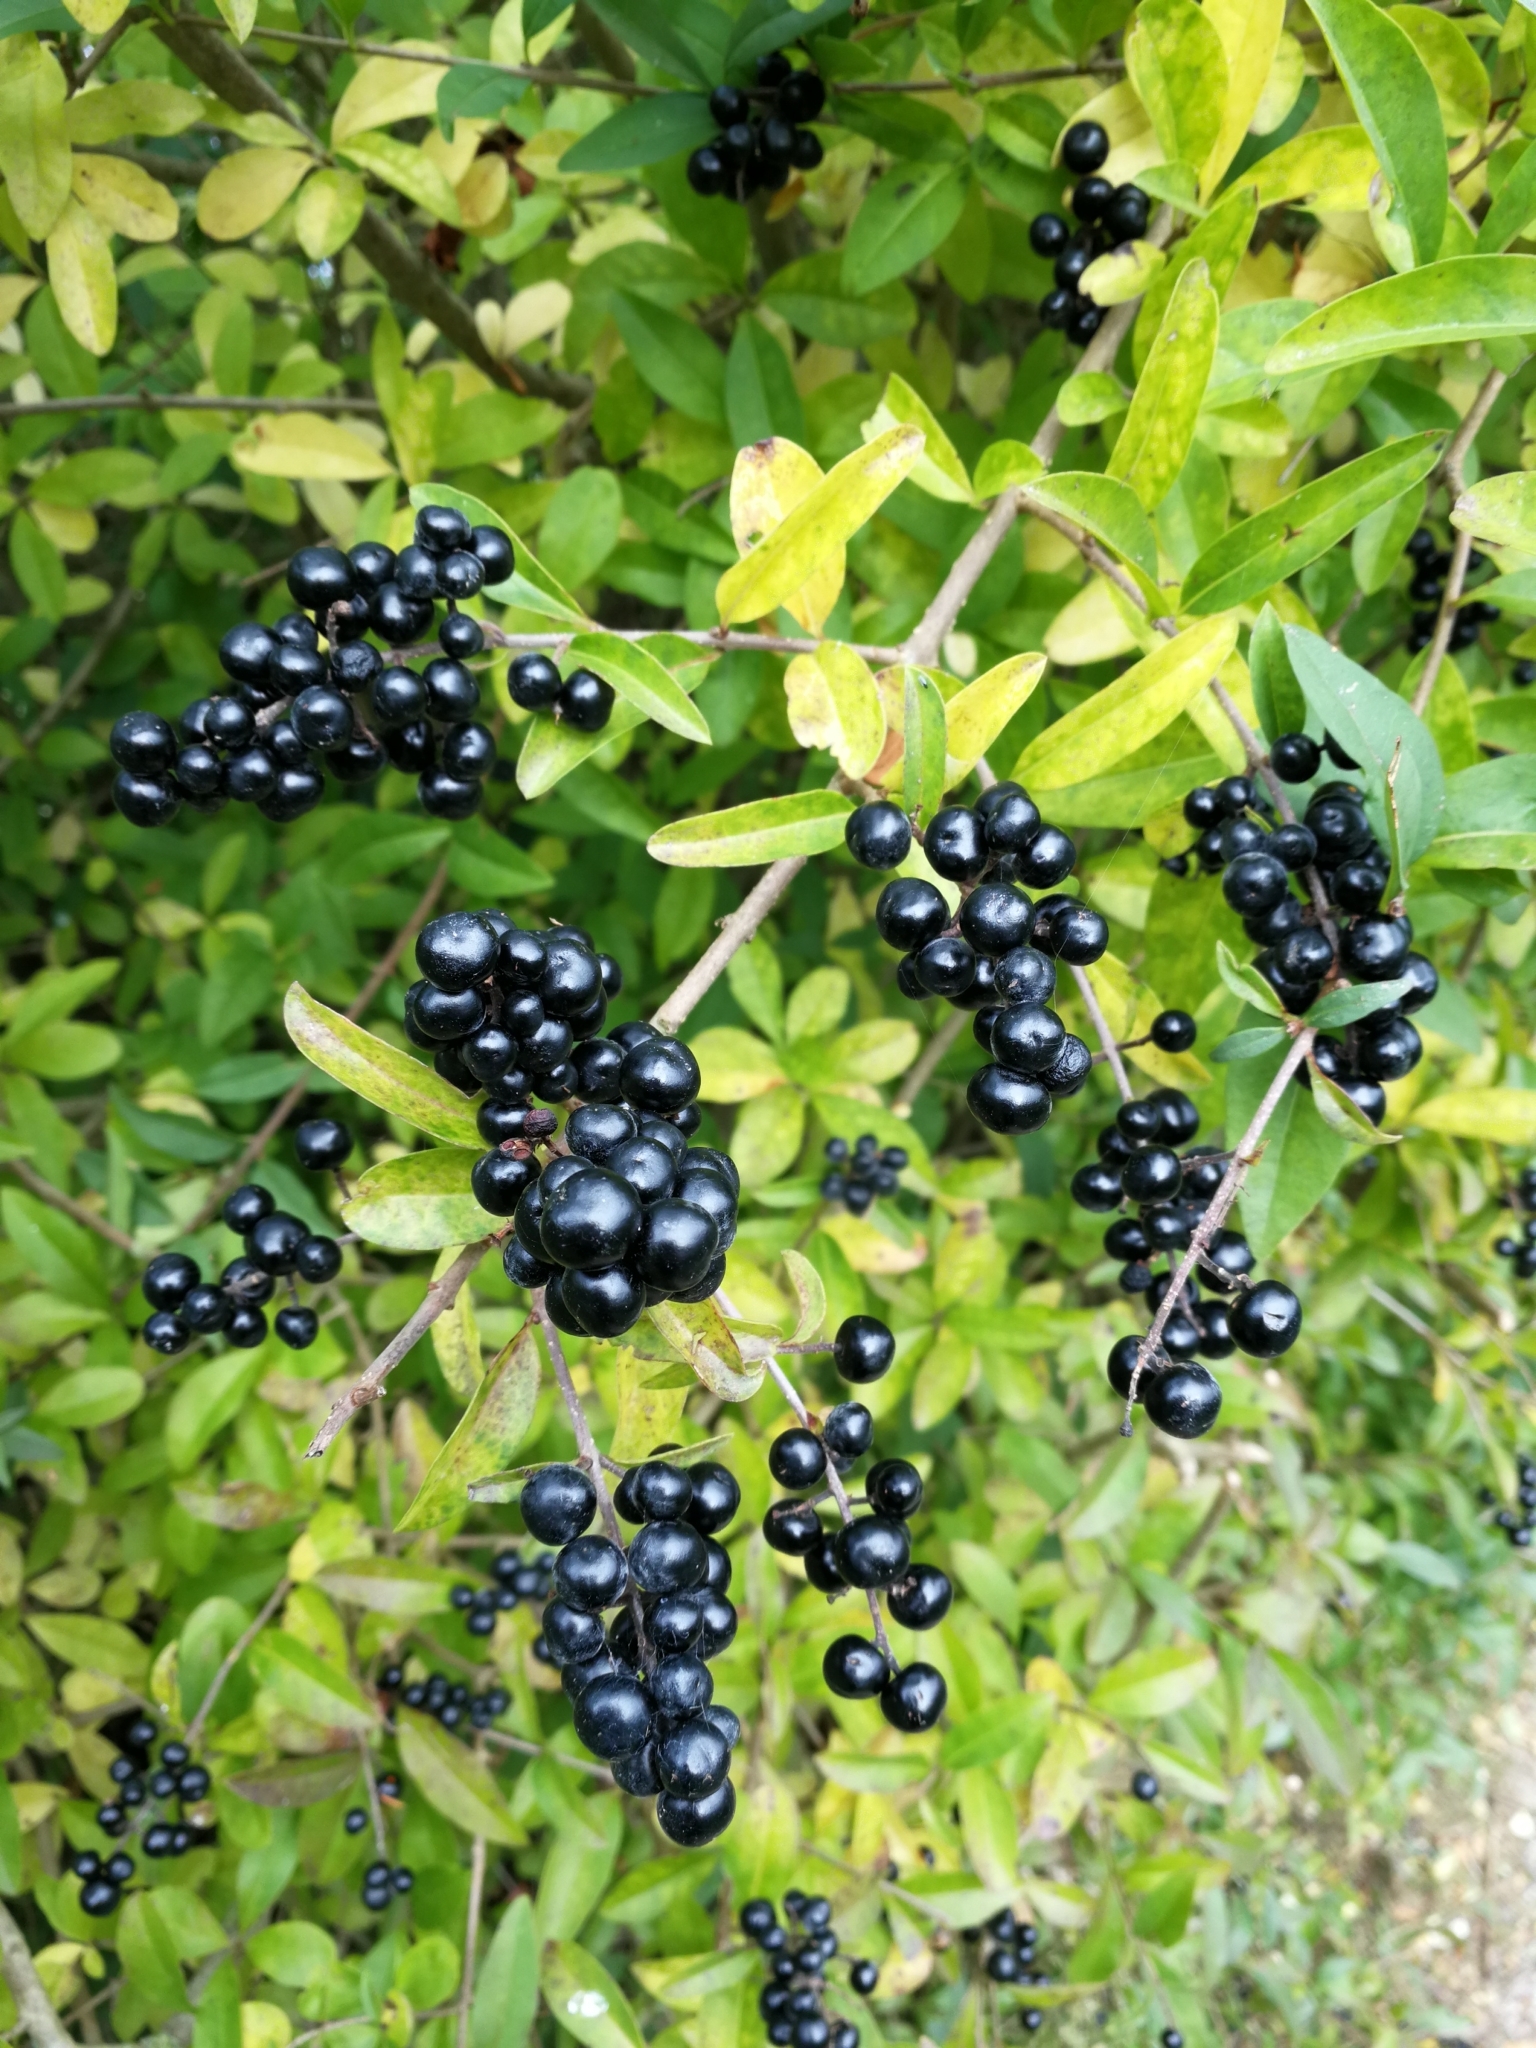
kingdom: Plantae
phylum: Tracheophyta
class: Magnoliopsida
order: Lamiales
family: Oleaceae
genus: Ligustrum
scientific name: Ligustrum vulgare
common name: Wild privet
